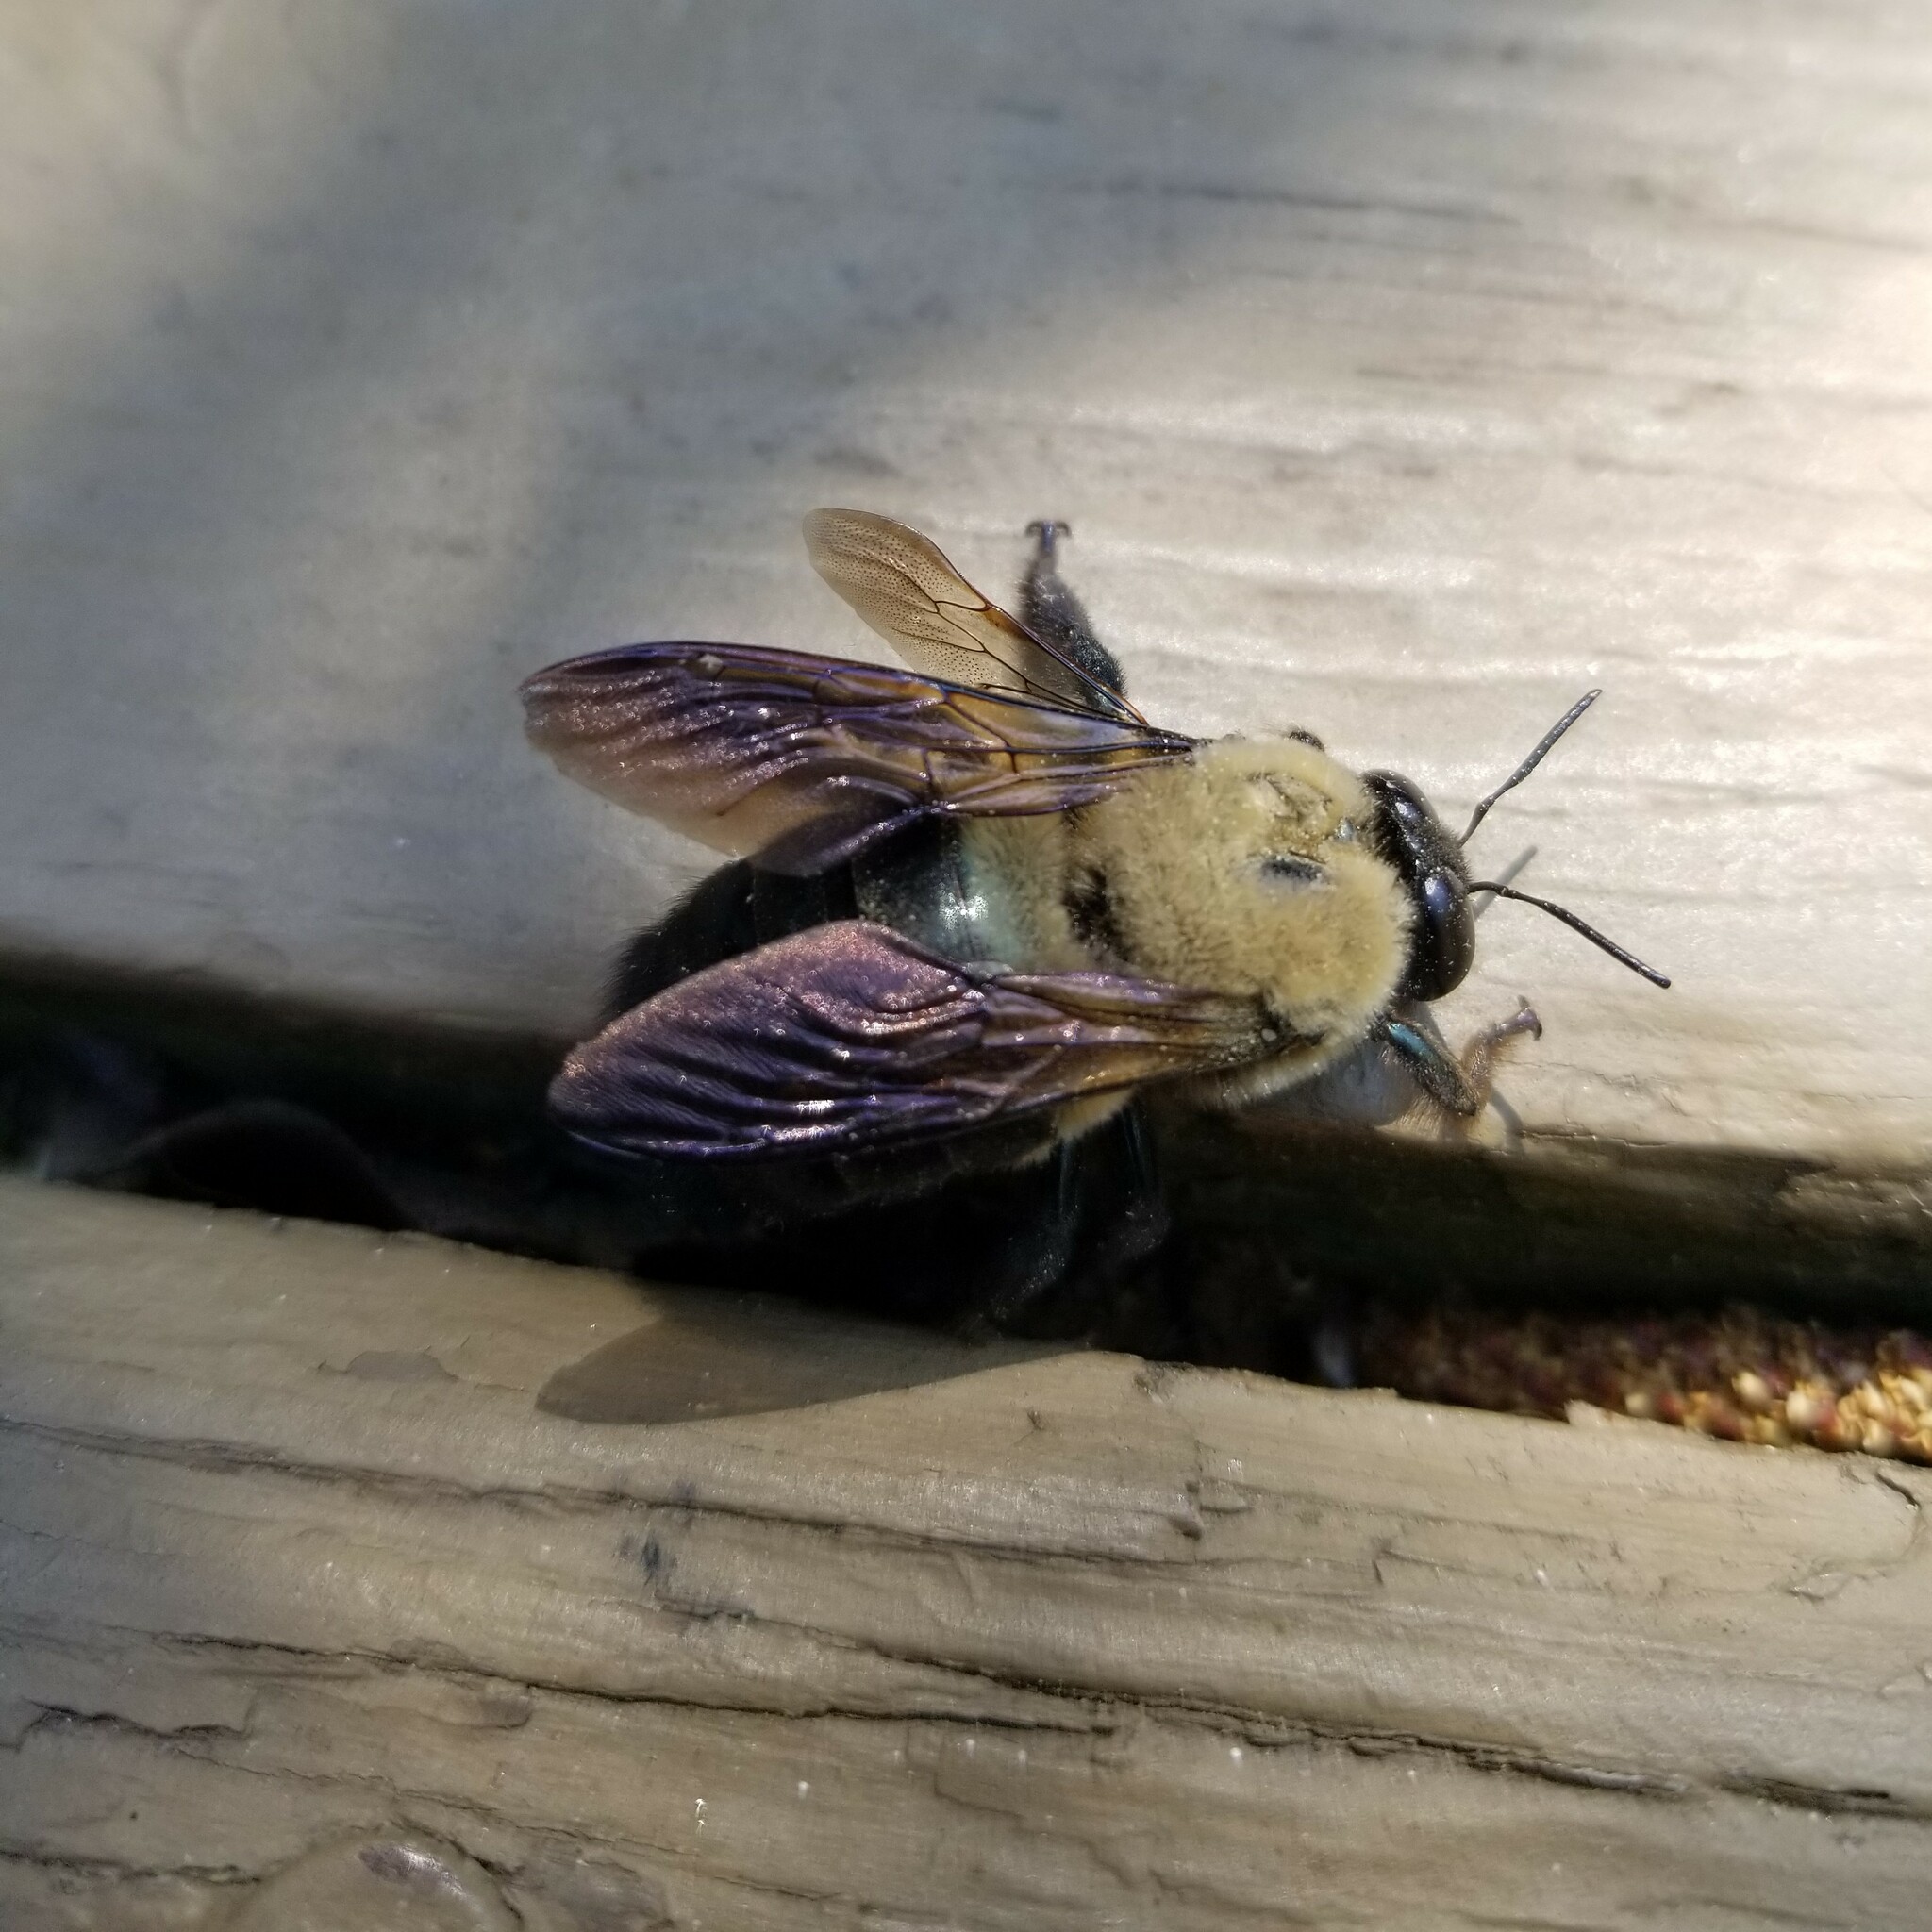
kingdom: Animalia
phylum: Arthropoda
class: Insecta
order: Hymenoptera
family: Apidae
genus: Xylocopa
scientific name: Xylocopa virginica
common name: Carpenter bee
